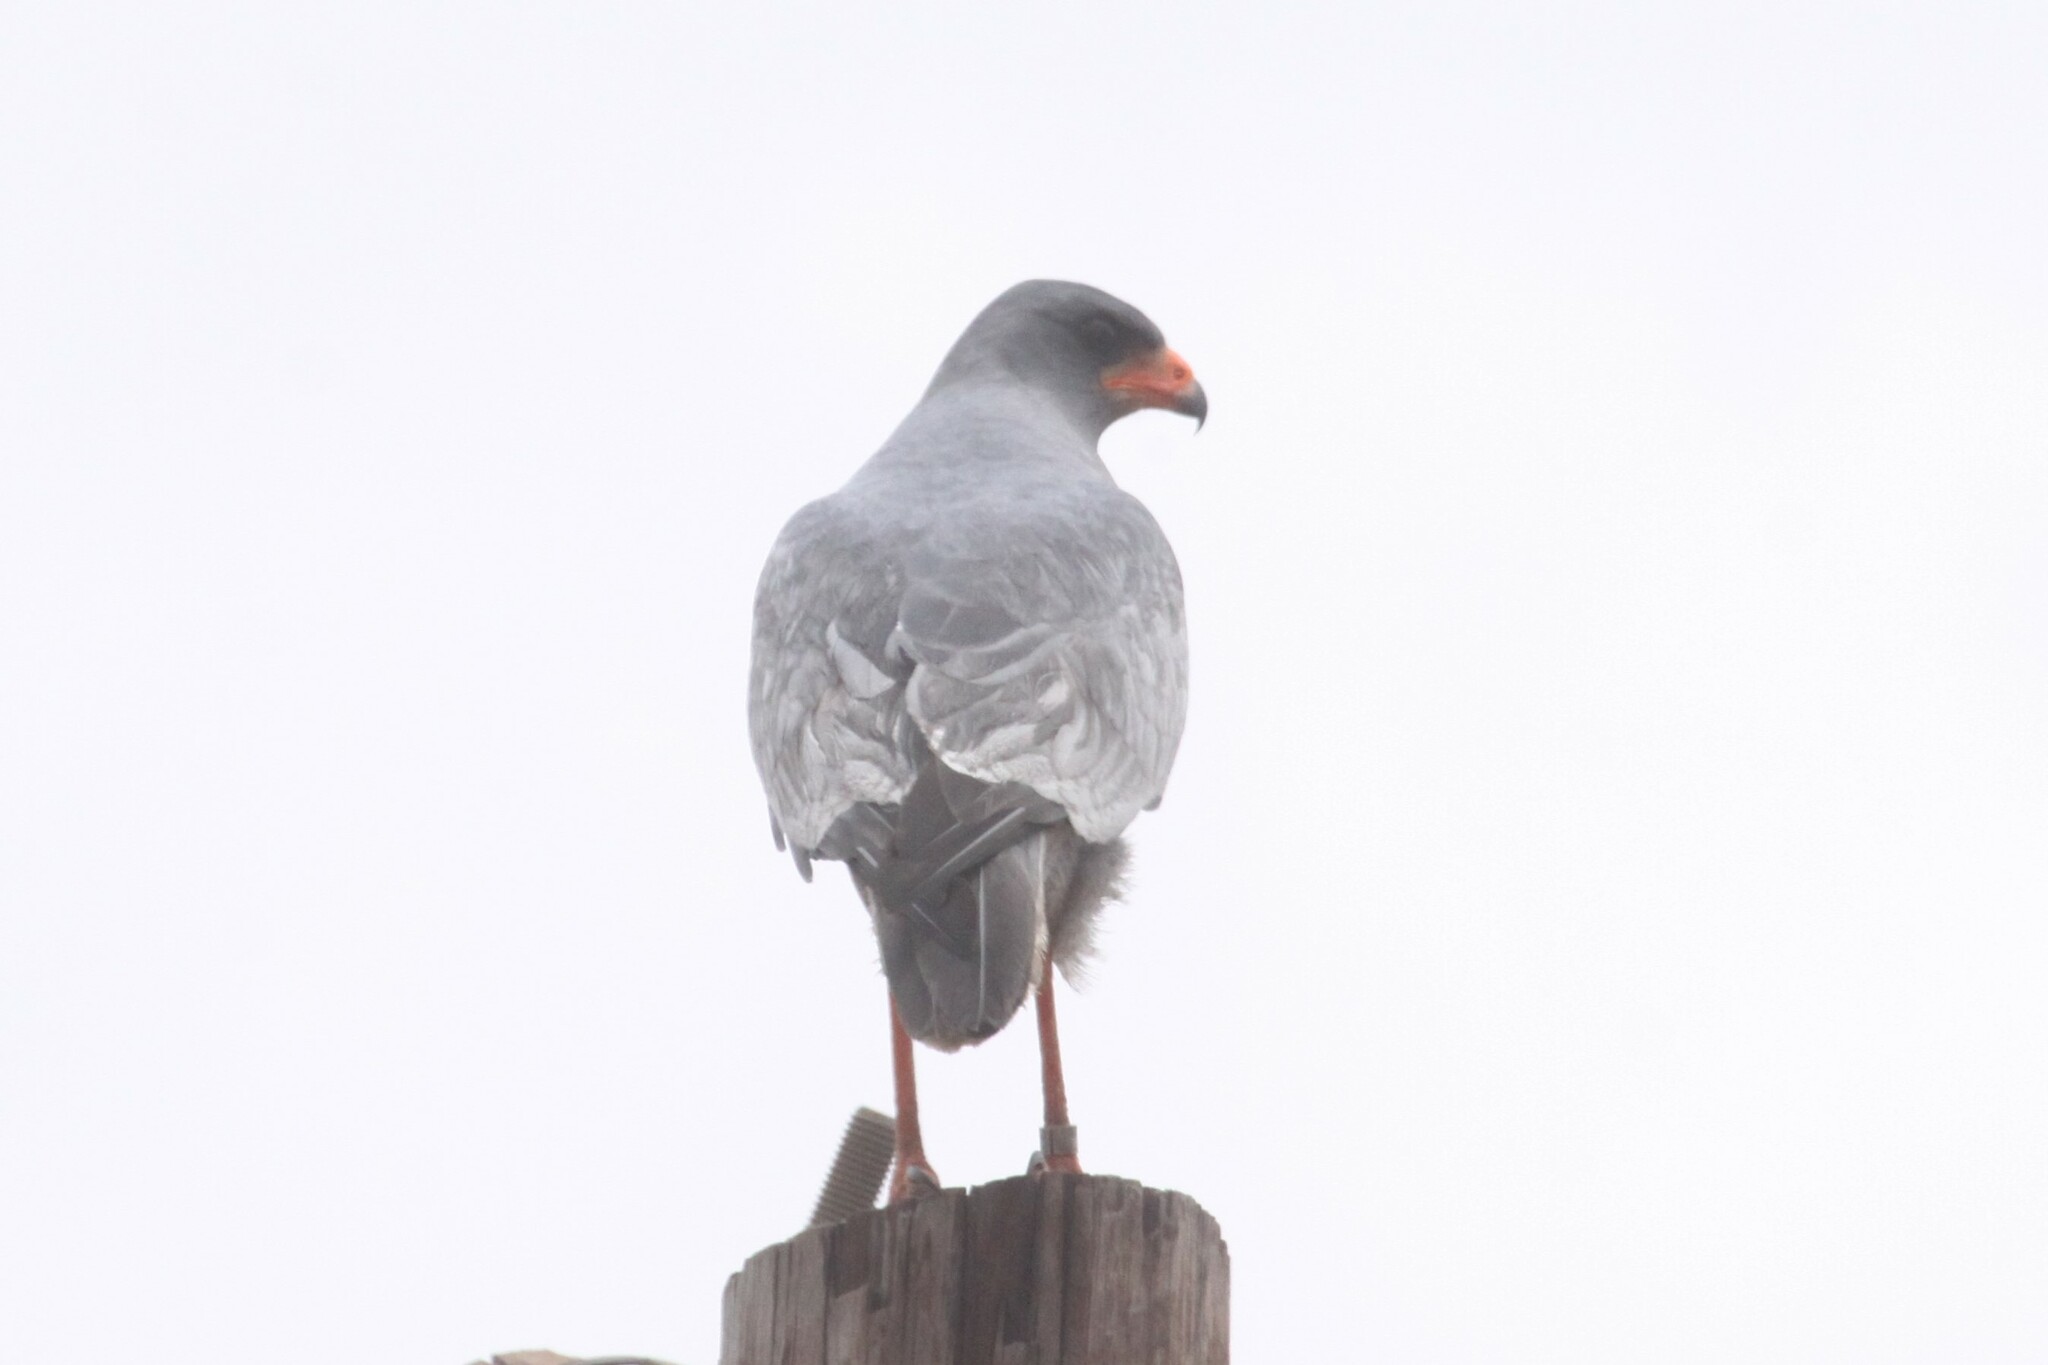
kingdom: Animalia
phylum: Chordata
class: Aves
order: Accipitriformes
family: Accipitridae
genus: Melierax
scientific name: Melierax canorus
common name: Pale chanting-goshawk
